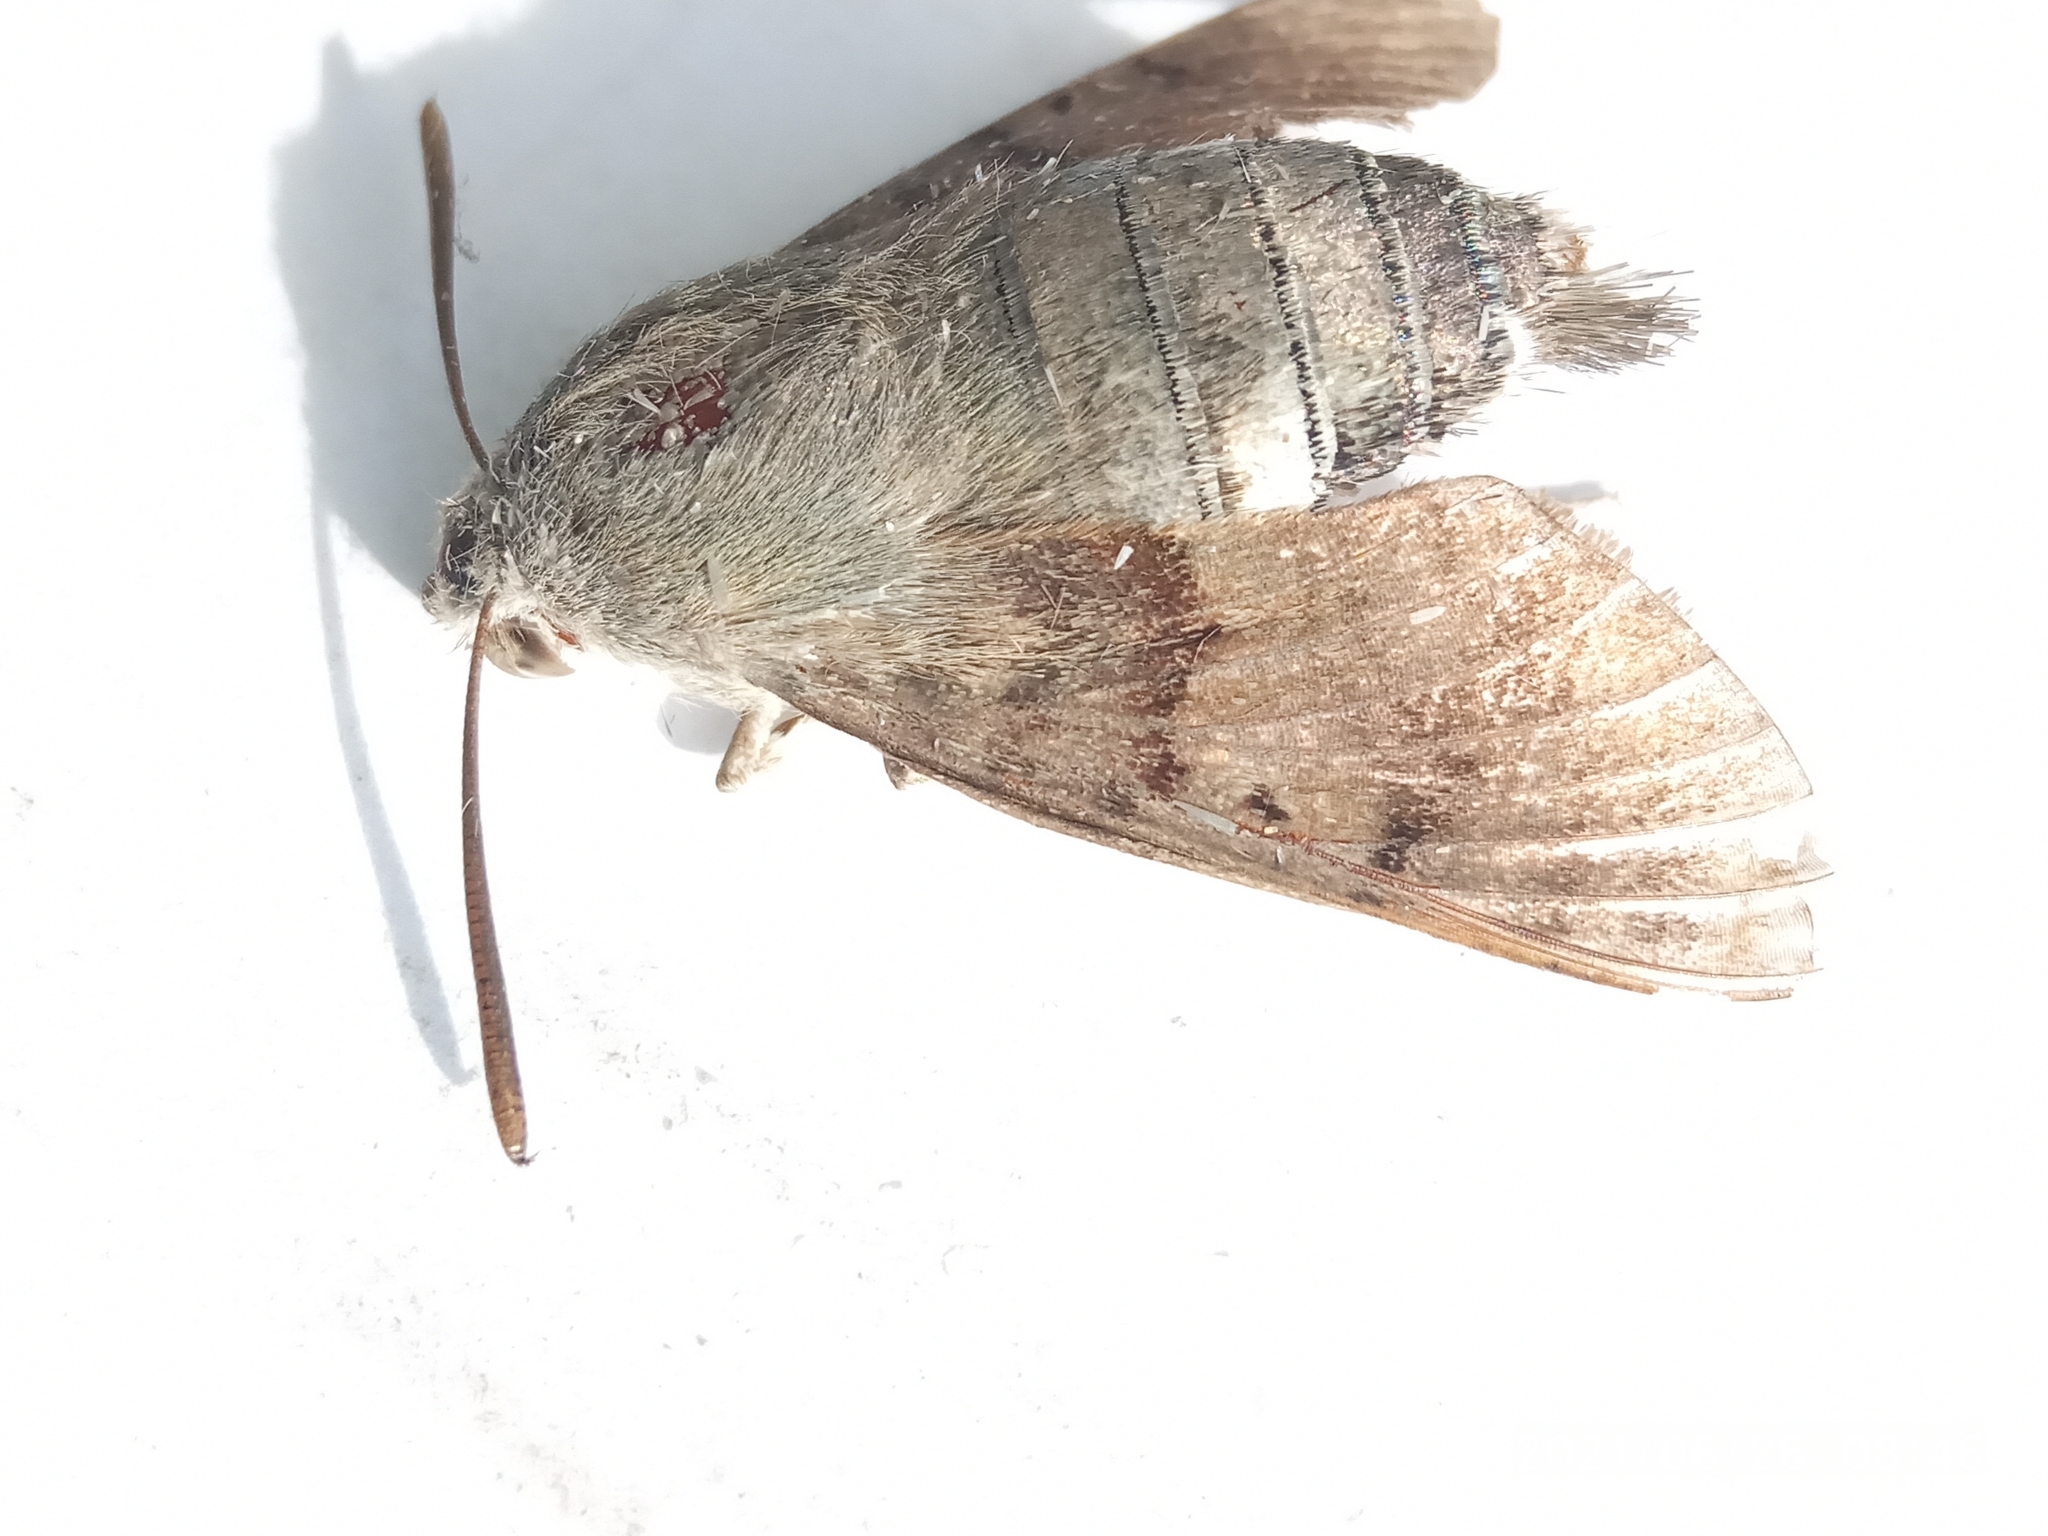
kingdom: Animalia
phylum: Arthropoda
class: Insecta
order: Lepidoptera
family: Sphingidae
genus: Macroglossum
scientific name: Macroglossum stellatarum
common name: Humming-bird hawk-moth
